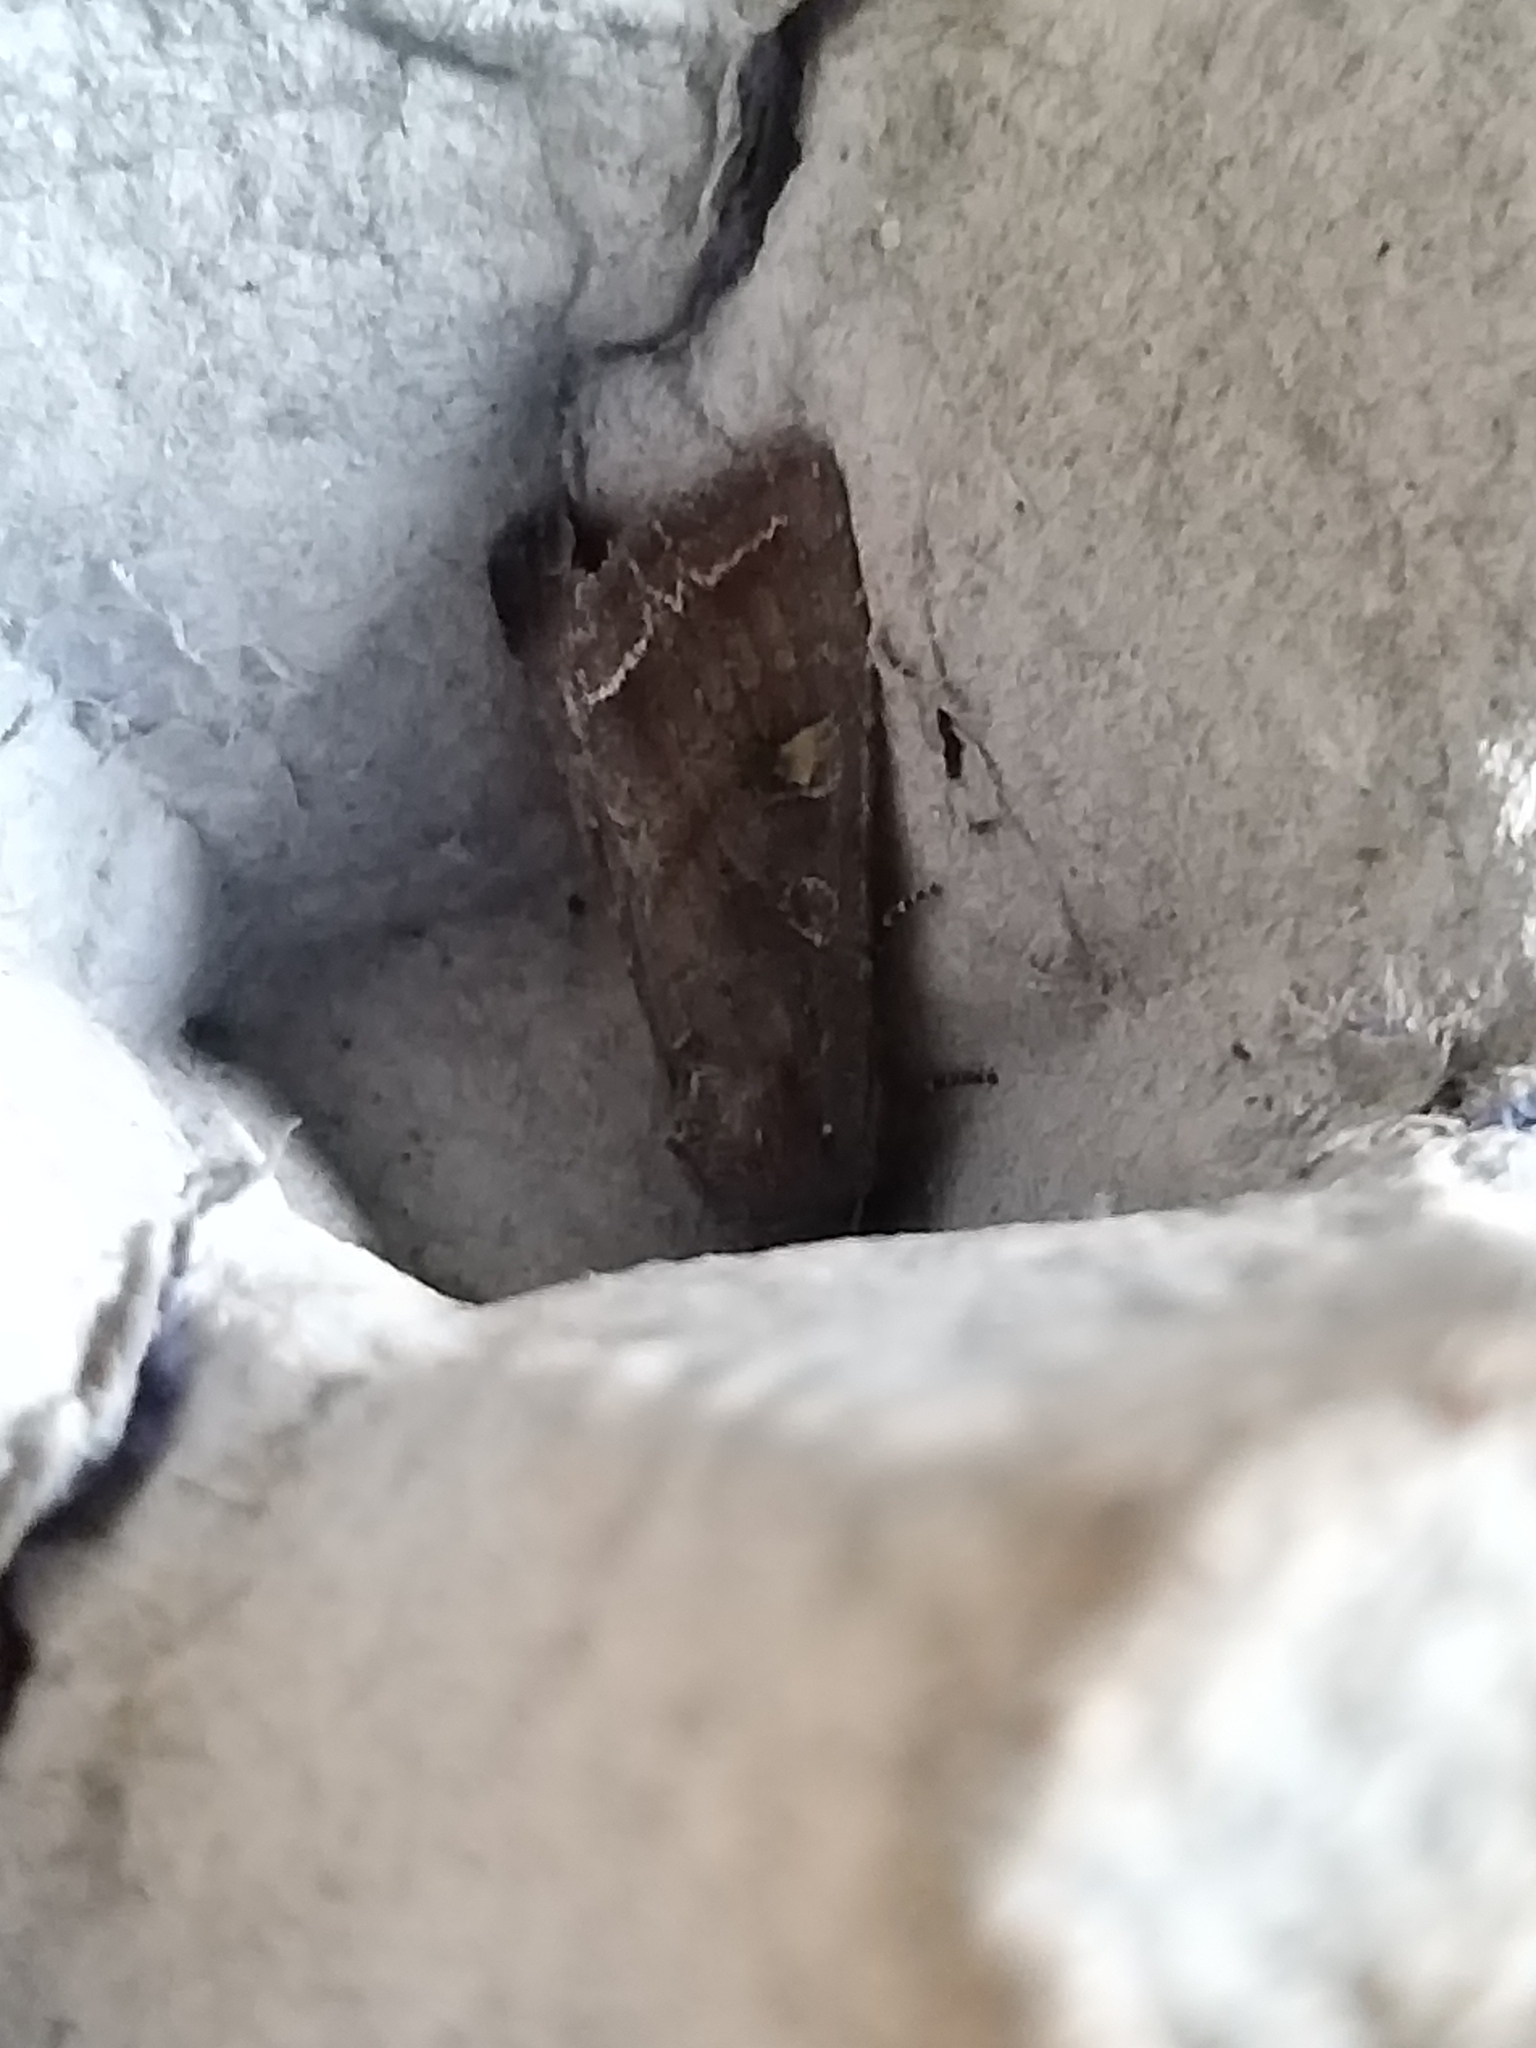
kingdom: Animalia
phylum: Arthropoda
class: Insecta
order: Lepidoptera
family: Noctuidae
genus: Lacanobia
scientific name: Lacanobia oleracea
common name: Bright-line brown-eye
